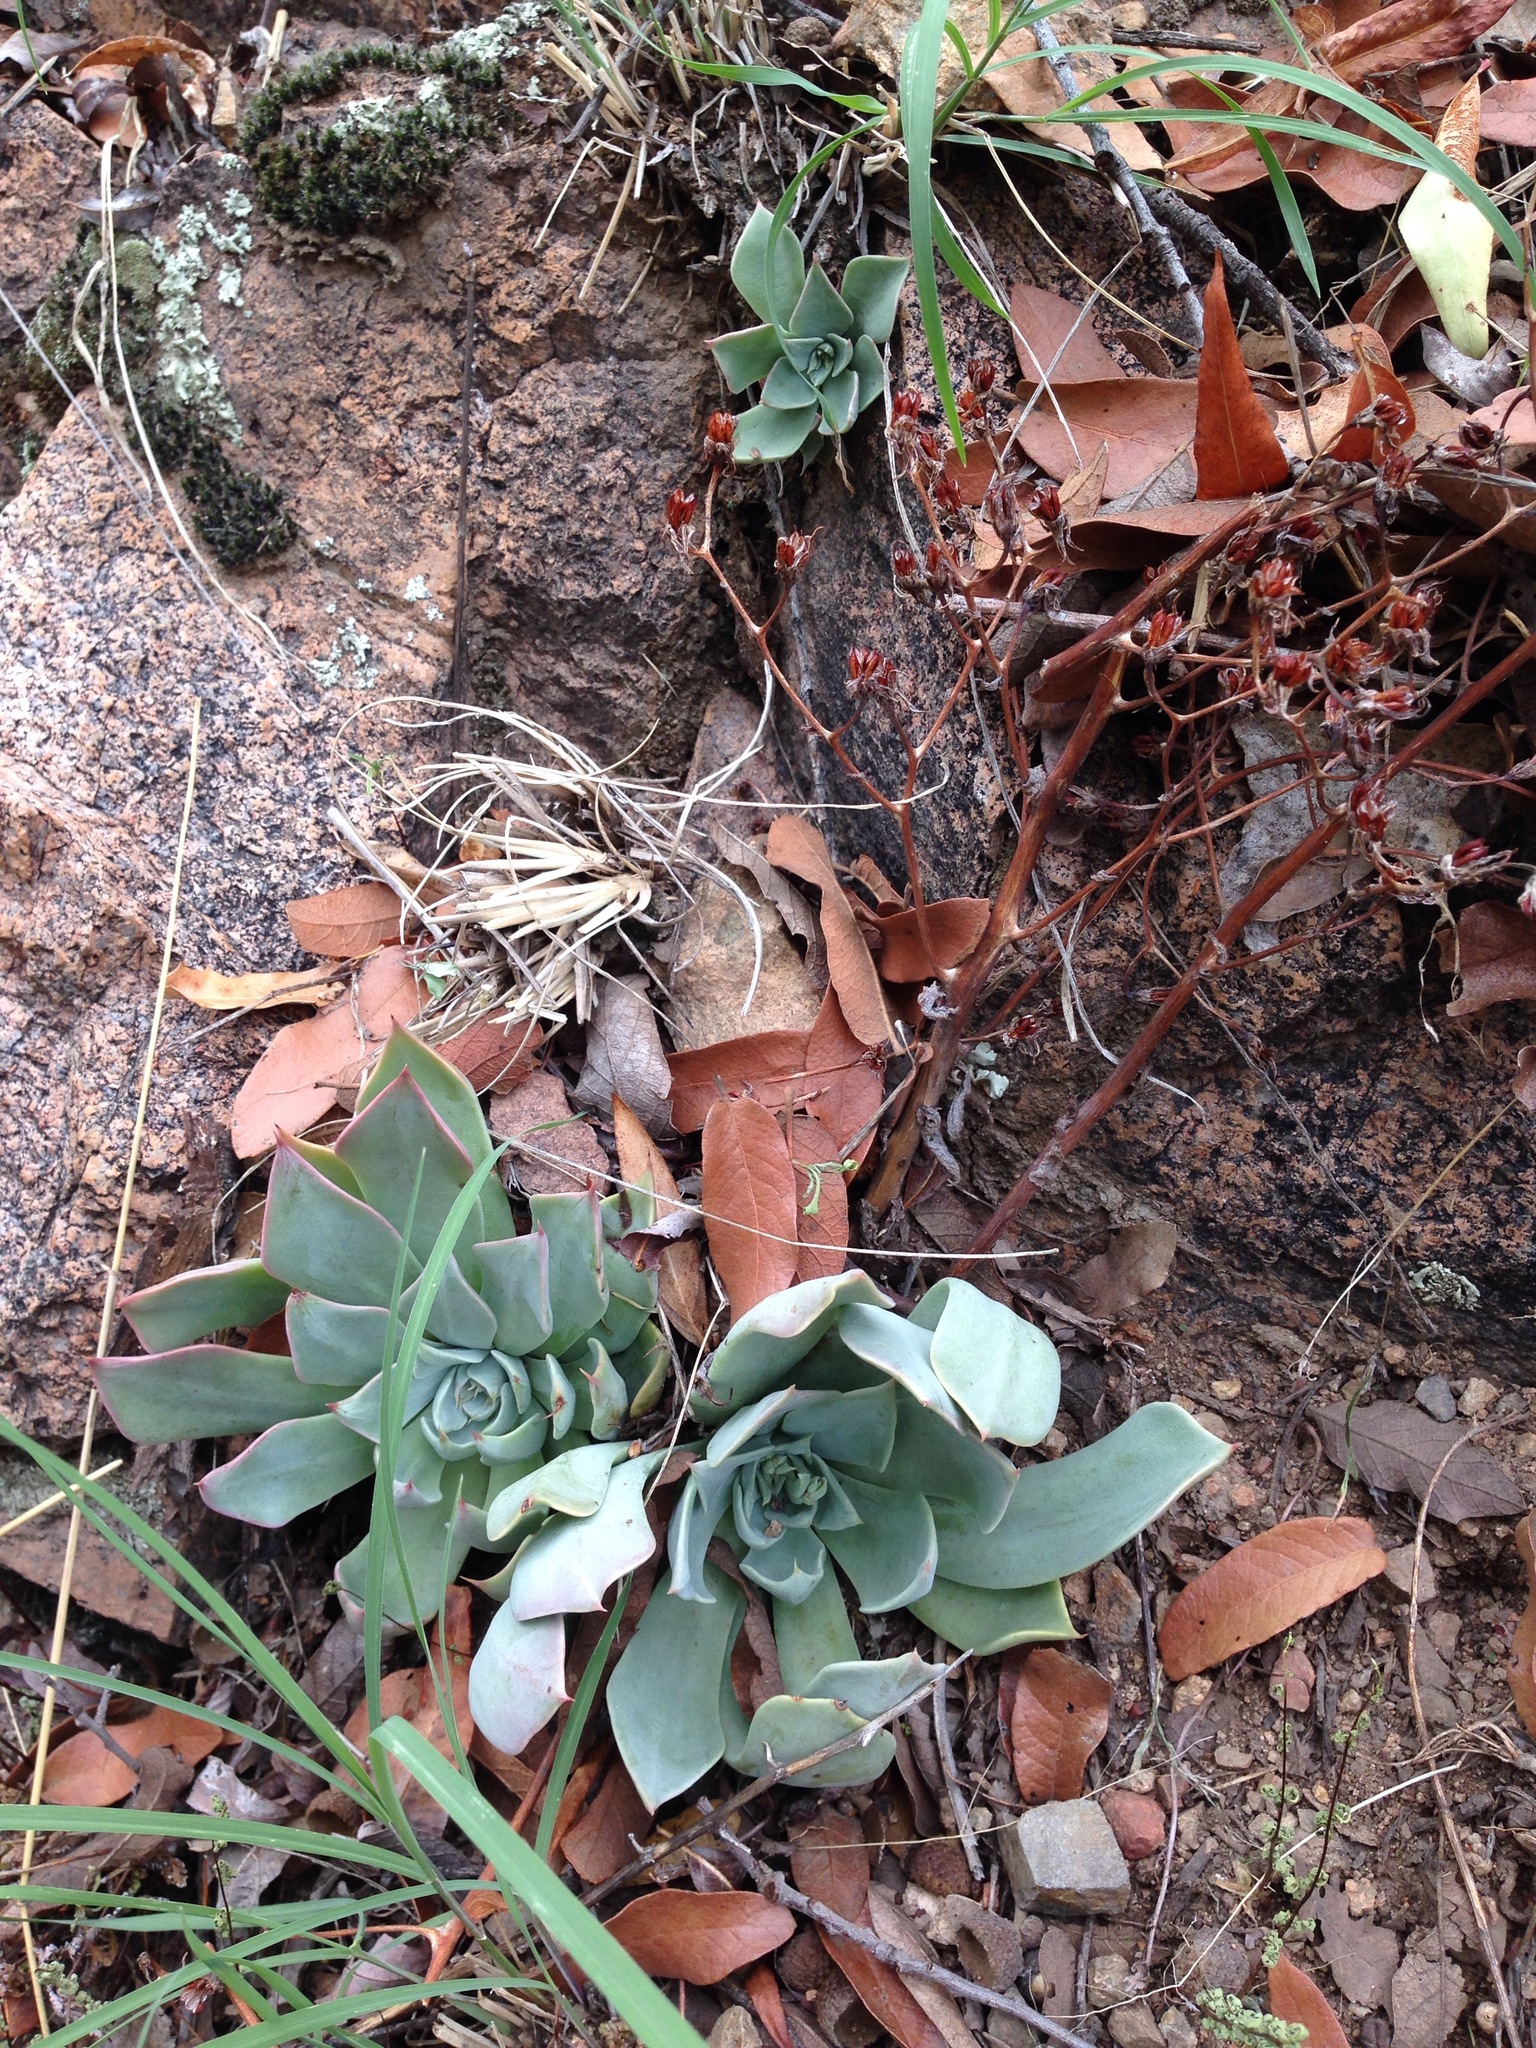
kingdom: Plantae
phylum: Tracheophyta
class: Magnoliopsida
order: Saxifragales
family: Crassulaceae
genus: Graptopetalum
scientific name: Graptopetalum bartramii
